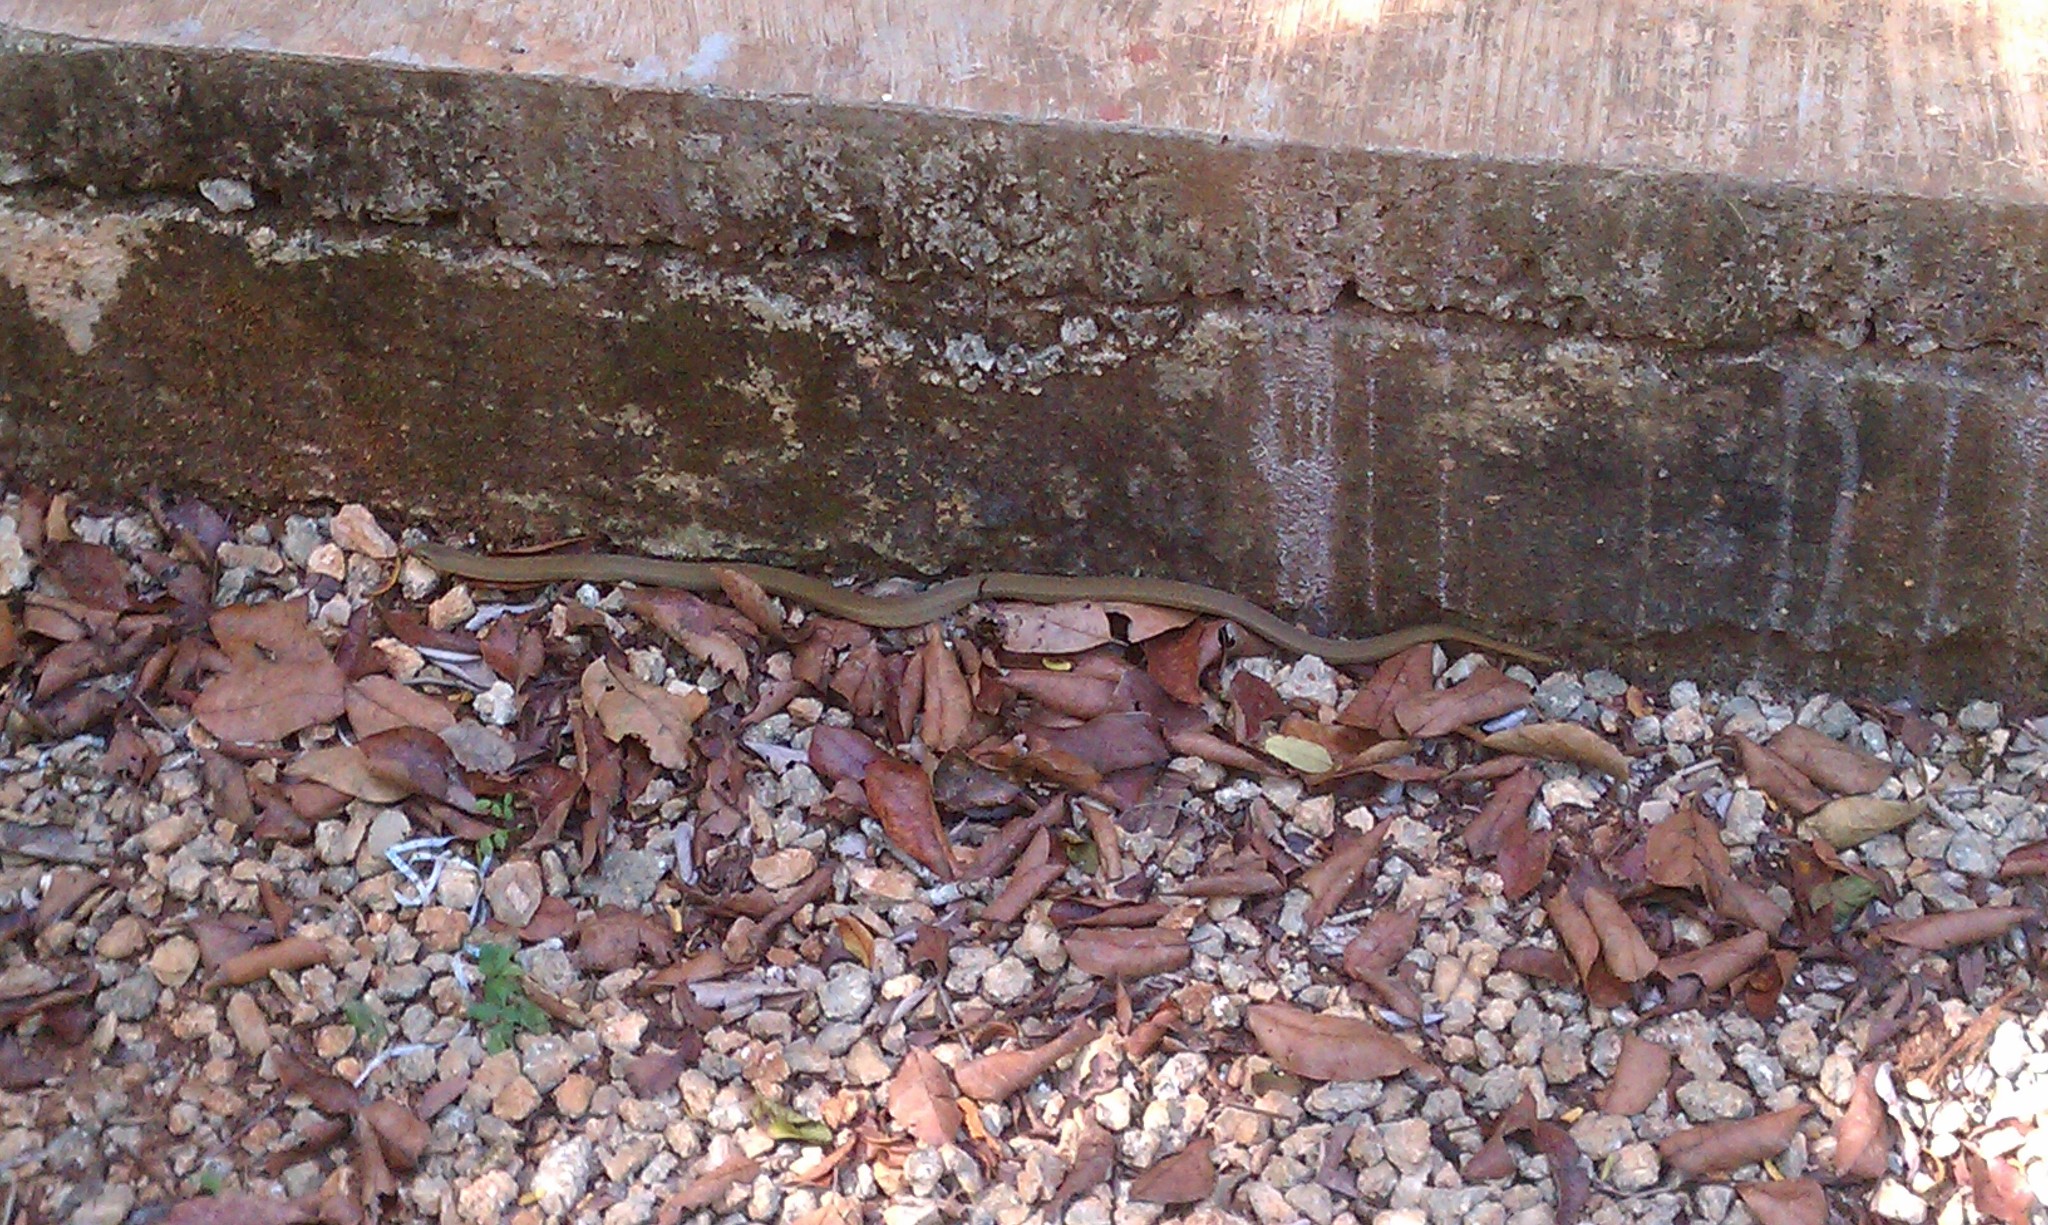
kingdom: Animalia
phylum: Chordata
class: Squamata
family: Colubridae
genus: Stenorrhina
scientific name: Stenorrhina freminvillei
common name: Blood snake
